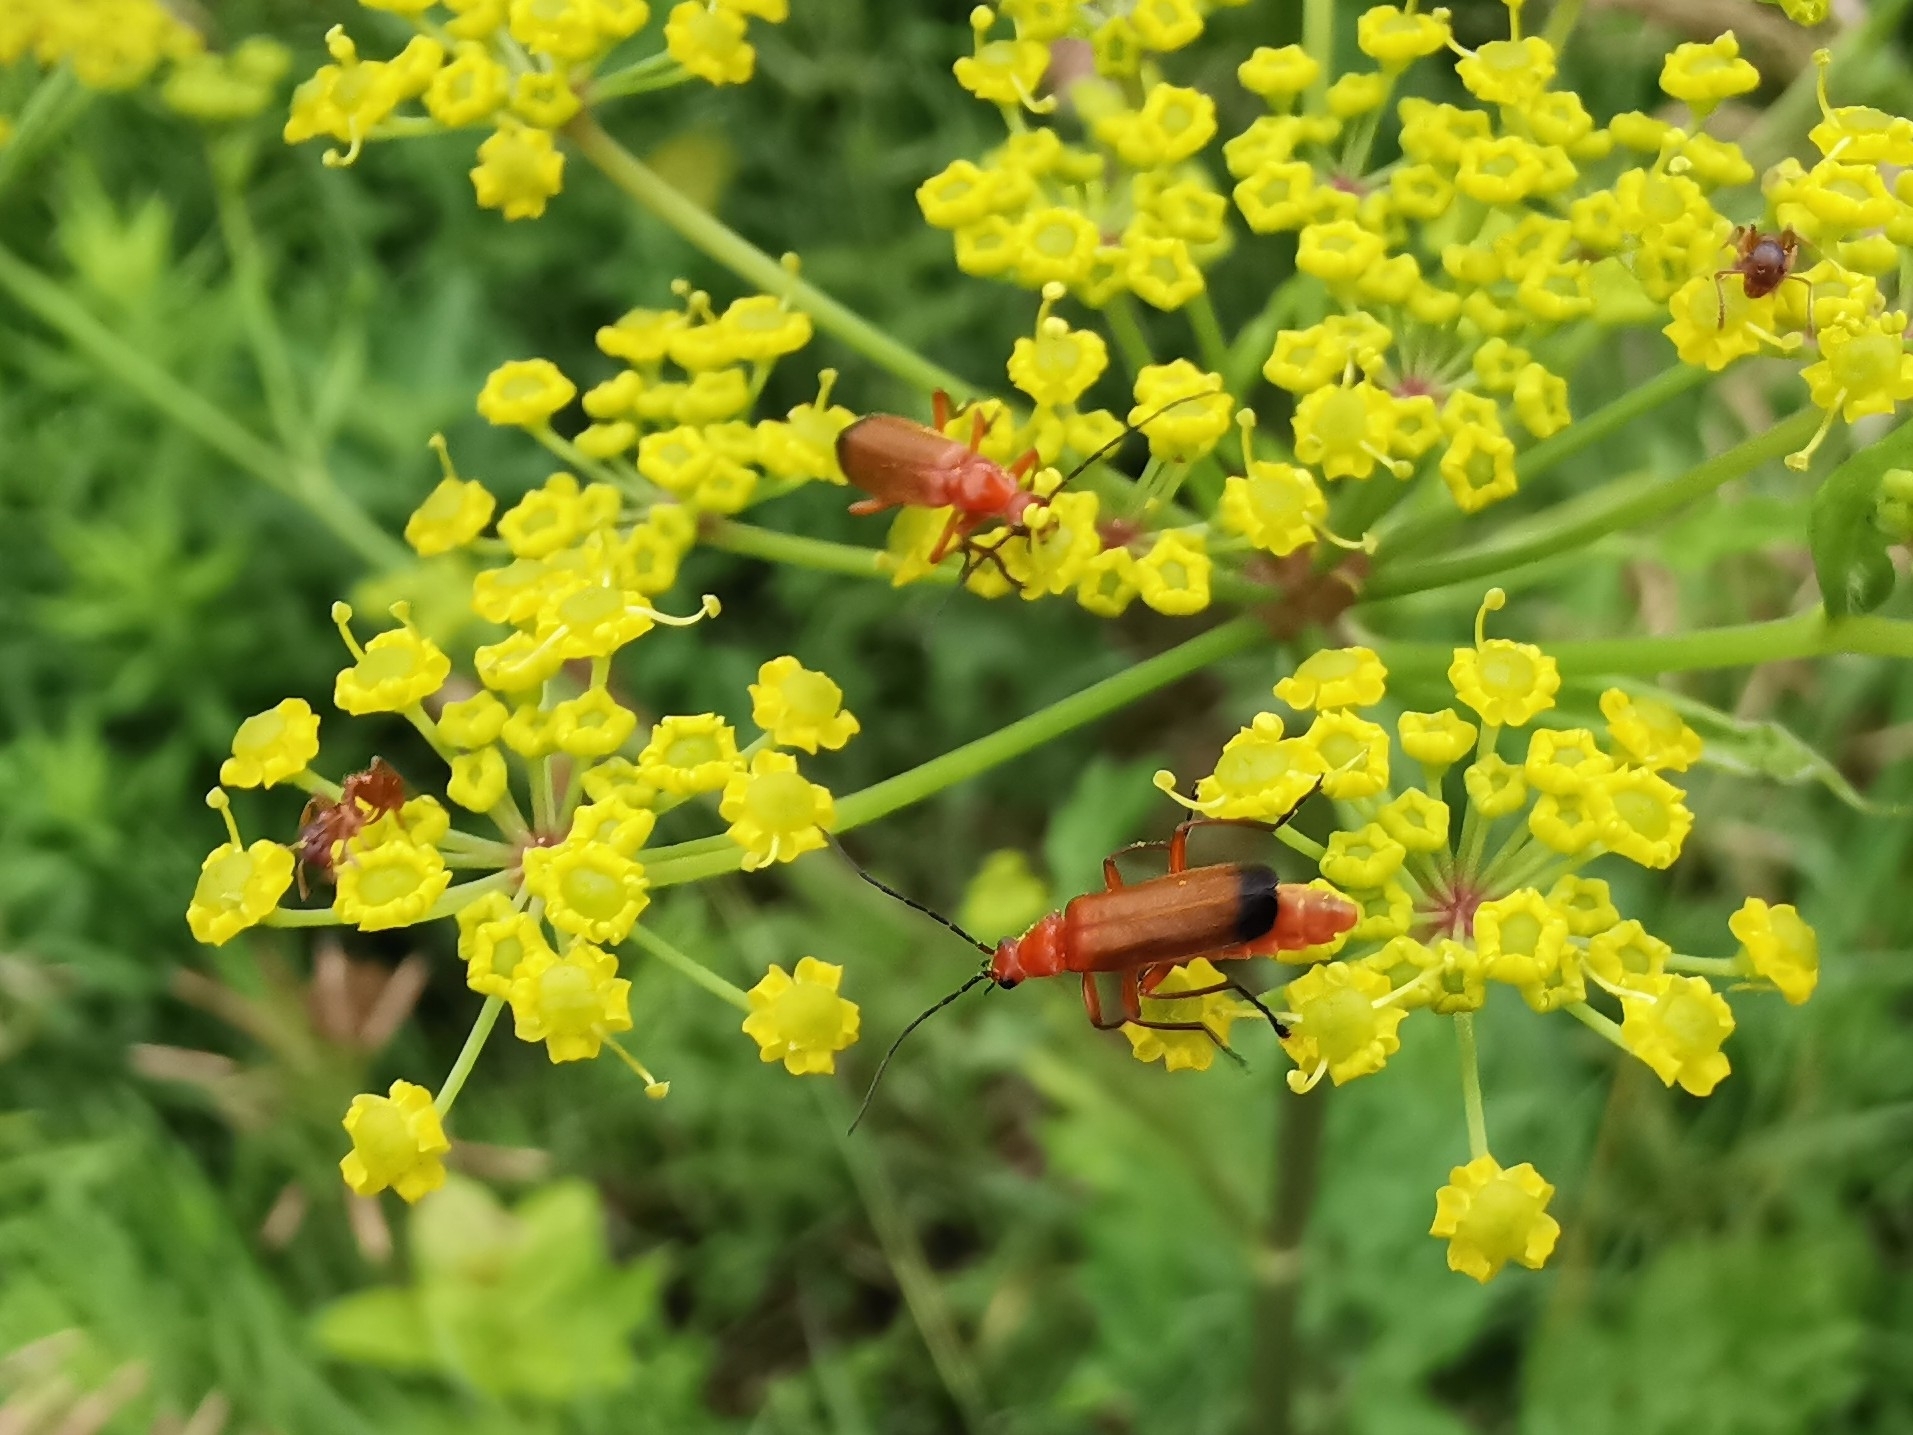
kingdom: Animalia
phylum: Arthropoda
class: Insecta
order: Coleoptera
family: Cantharidae
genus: Rhagonycha
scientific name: Rhagonycha fulva
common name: Common red soldier beetle
